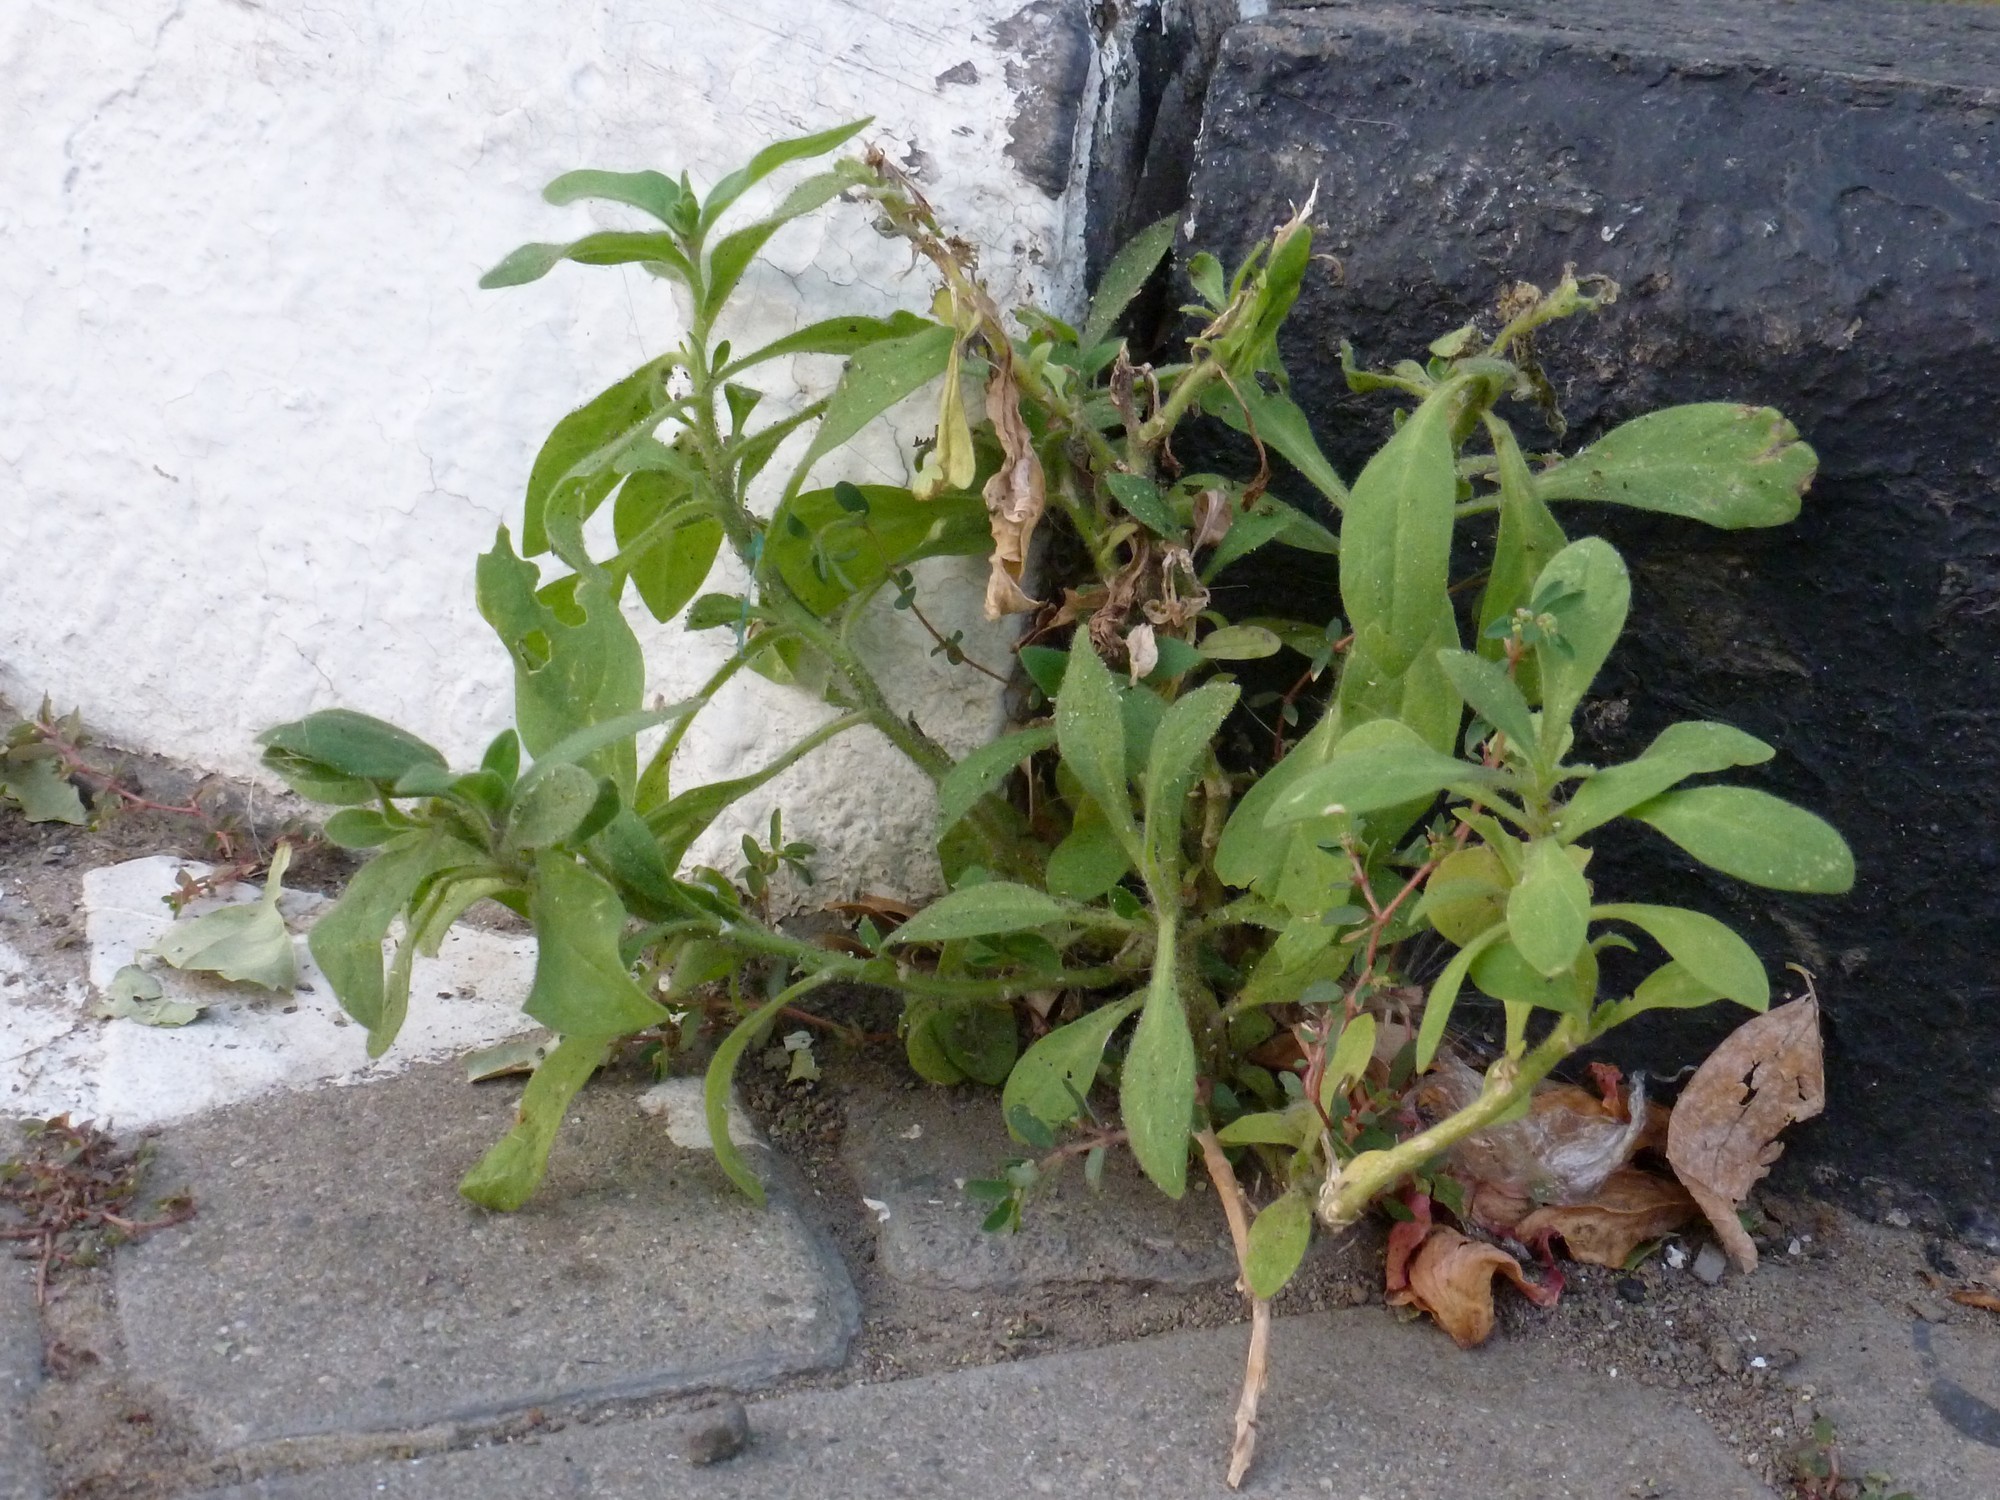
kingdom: Plantae
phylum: Tracheophyta
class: Magnoliopsida
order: Solanales
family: Solanaceae
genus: Petunia
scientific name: Petunia atkinsiana
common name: Petunia
